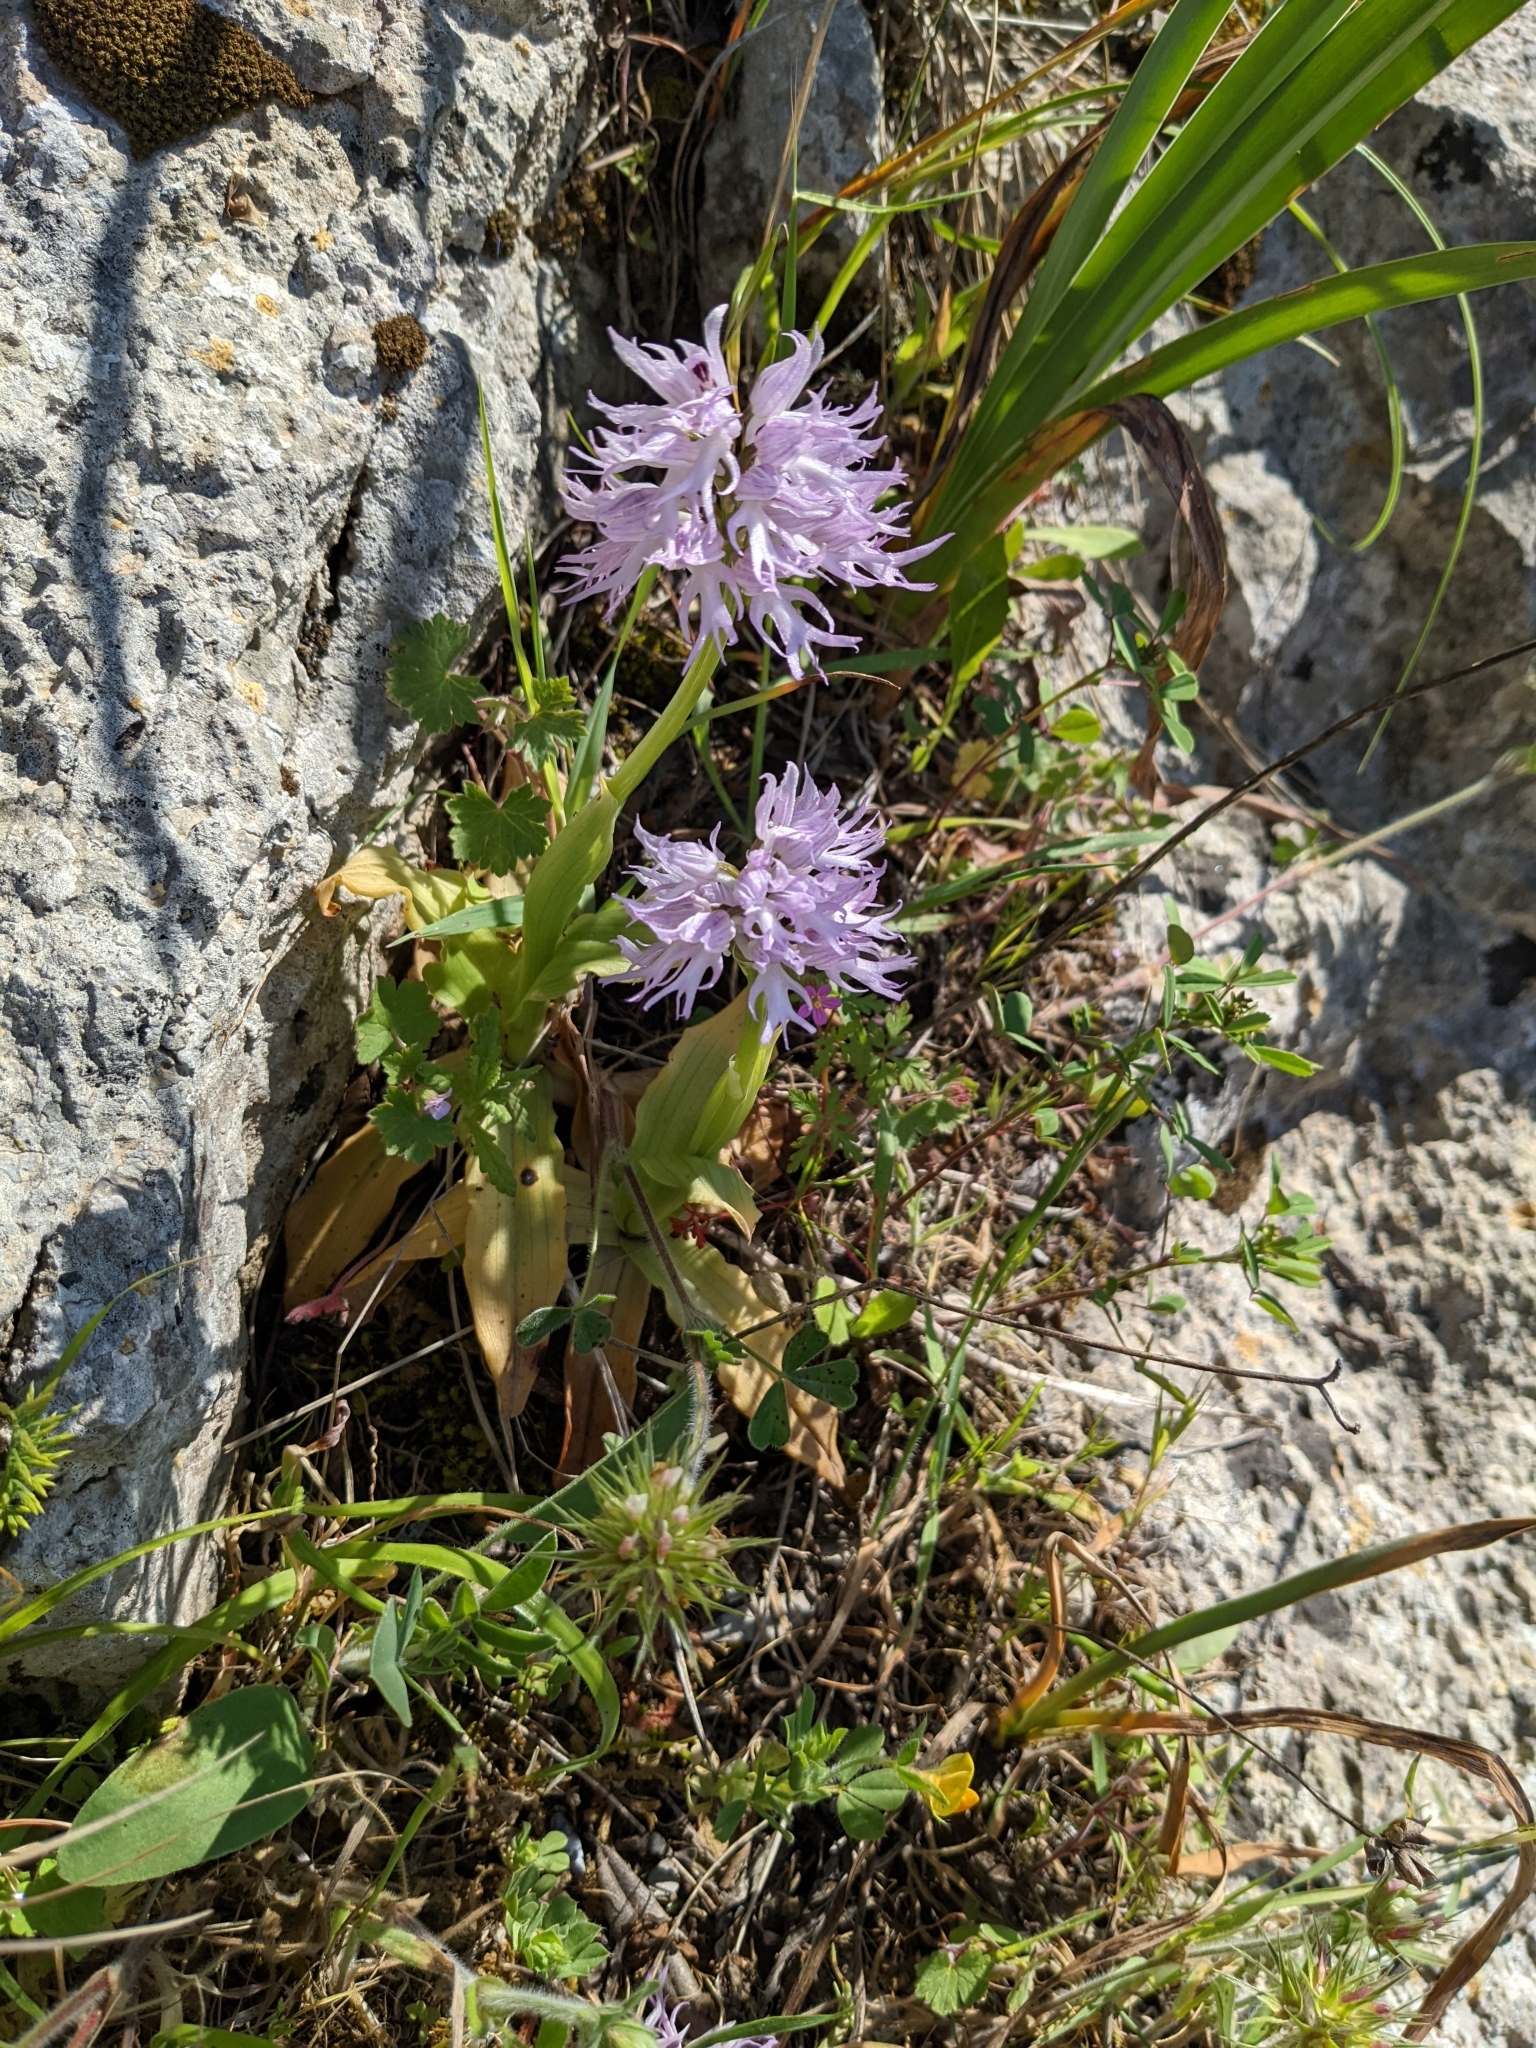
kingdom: Plantae
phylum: Tracheophyta
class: Liliopsida
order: Asparagales
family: Orchidaceae
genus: Orchis
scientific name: Orchis italica
